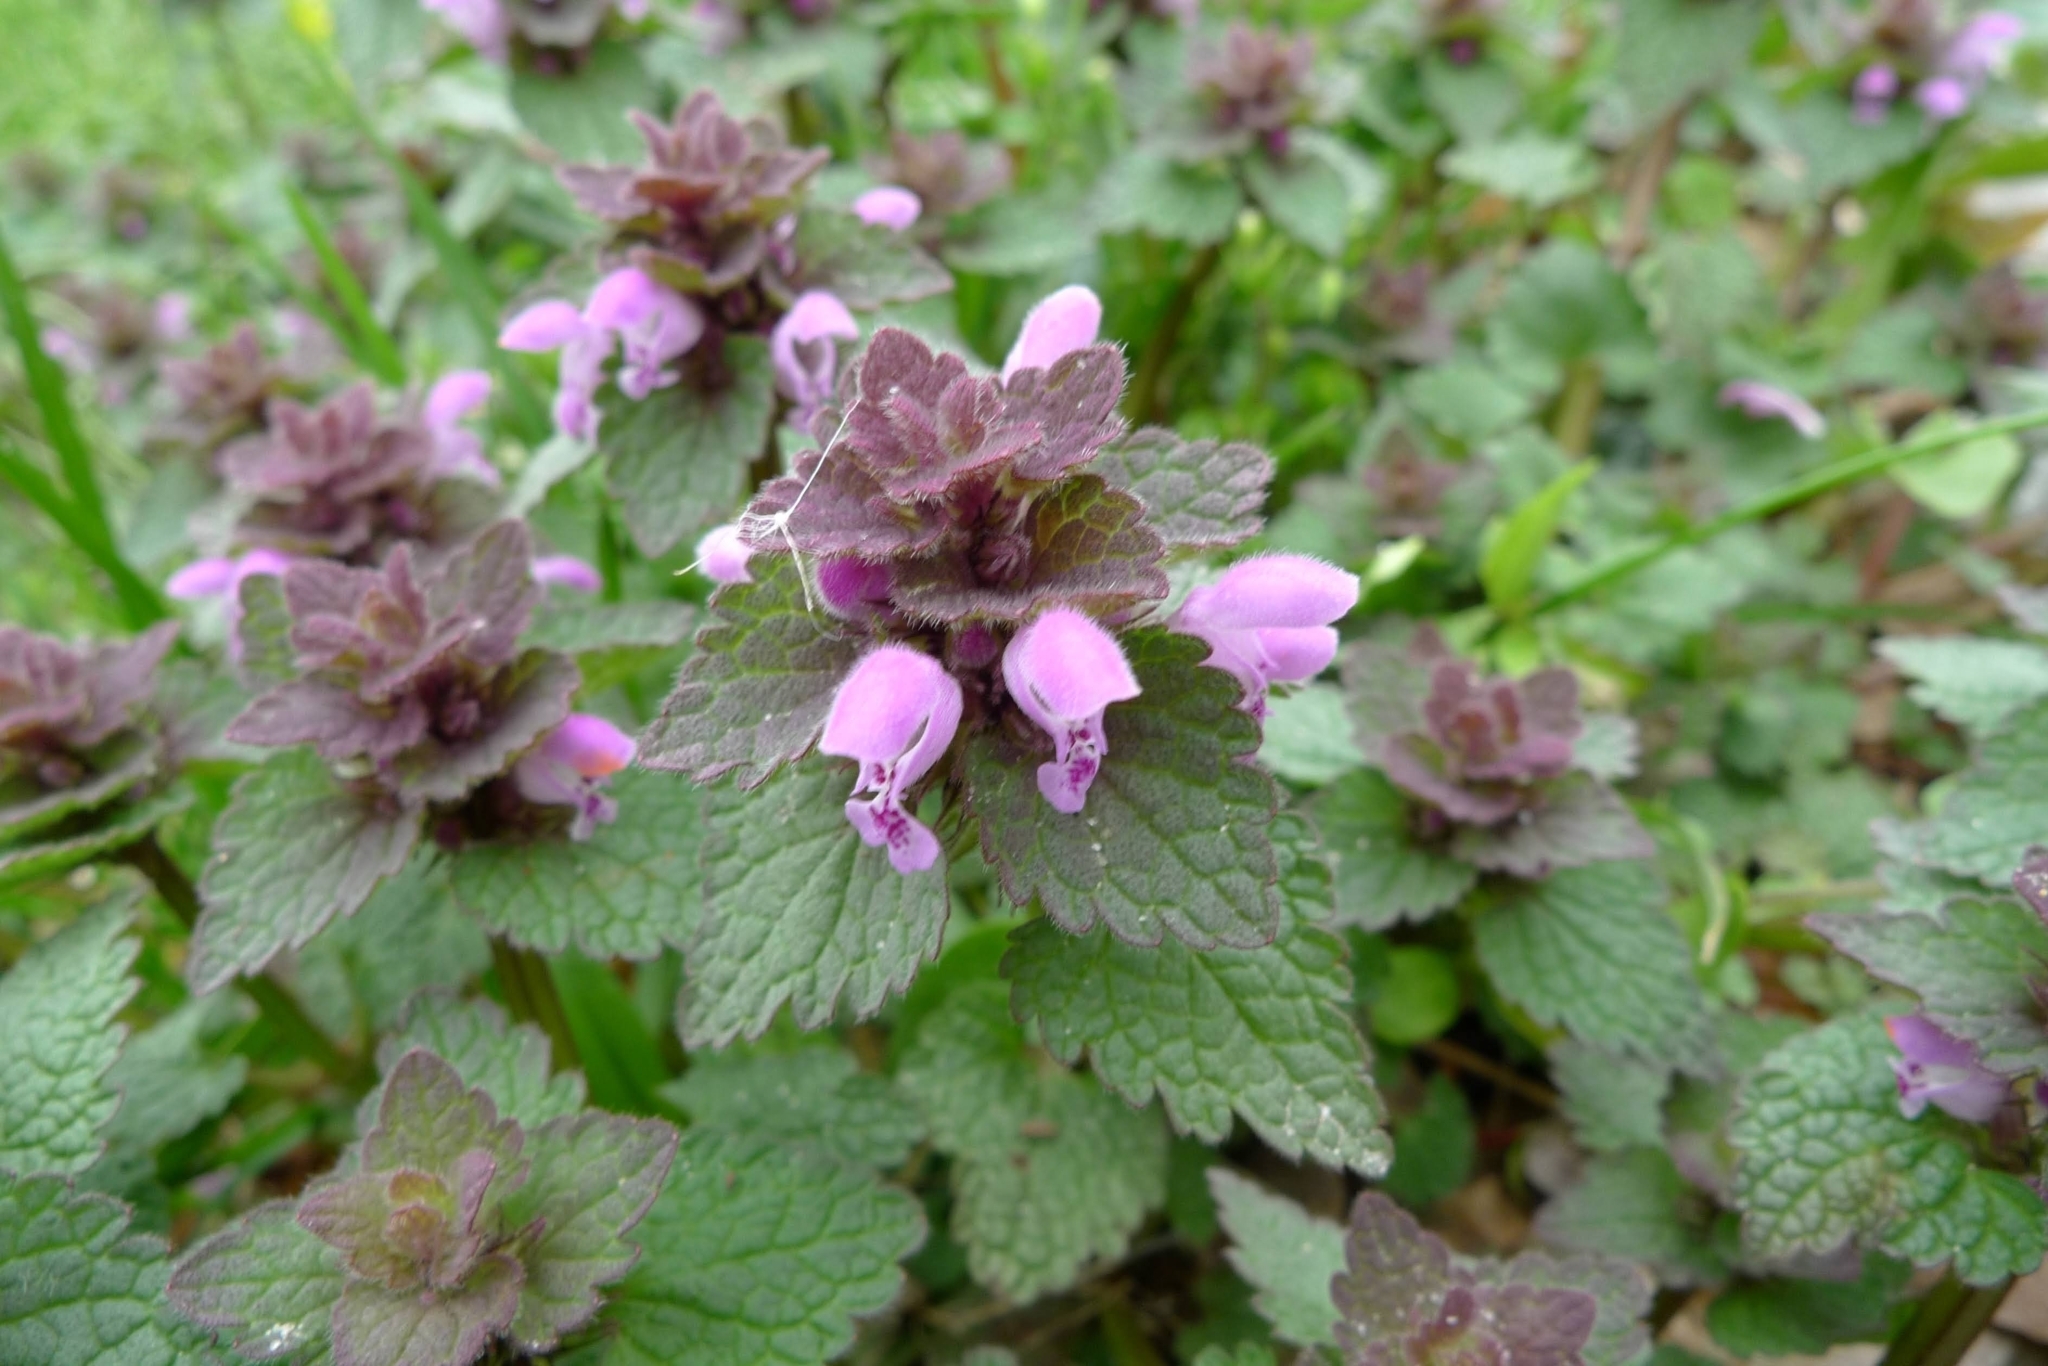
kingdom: Plantae
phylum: Tracheophyta
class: Magnoliopsida
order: Lamiales
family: Lamiaceae
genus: Lamium
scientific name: Lamium purpureum
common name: Red dead-nettle
